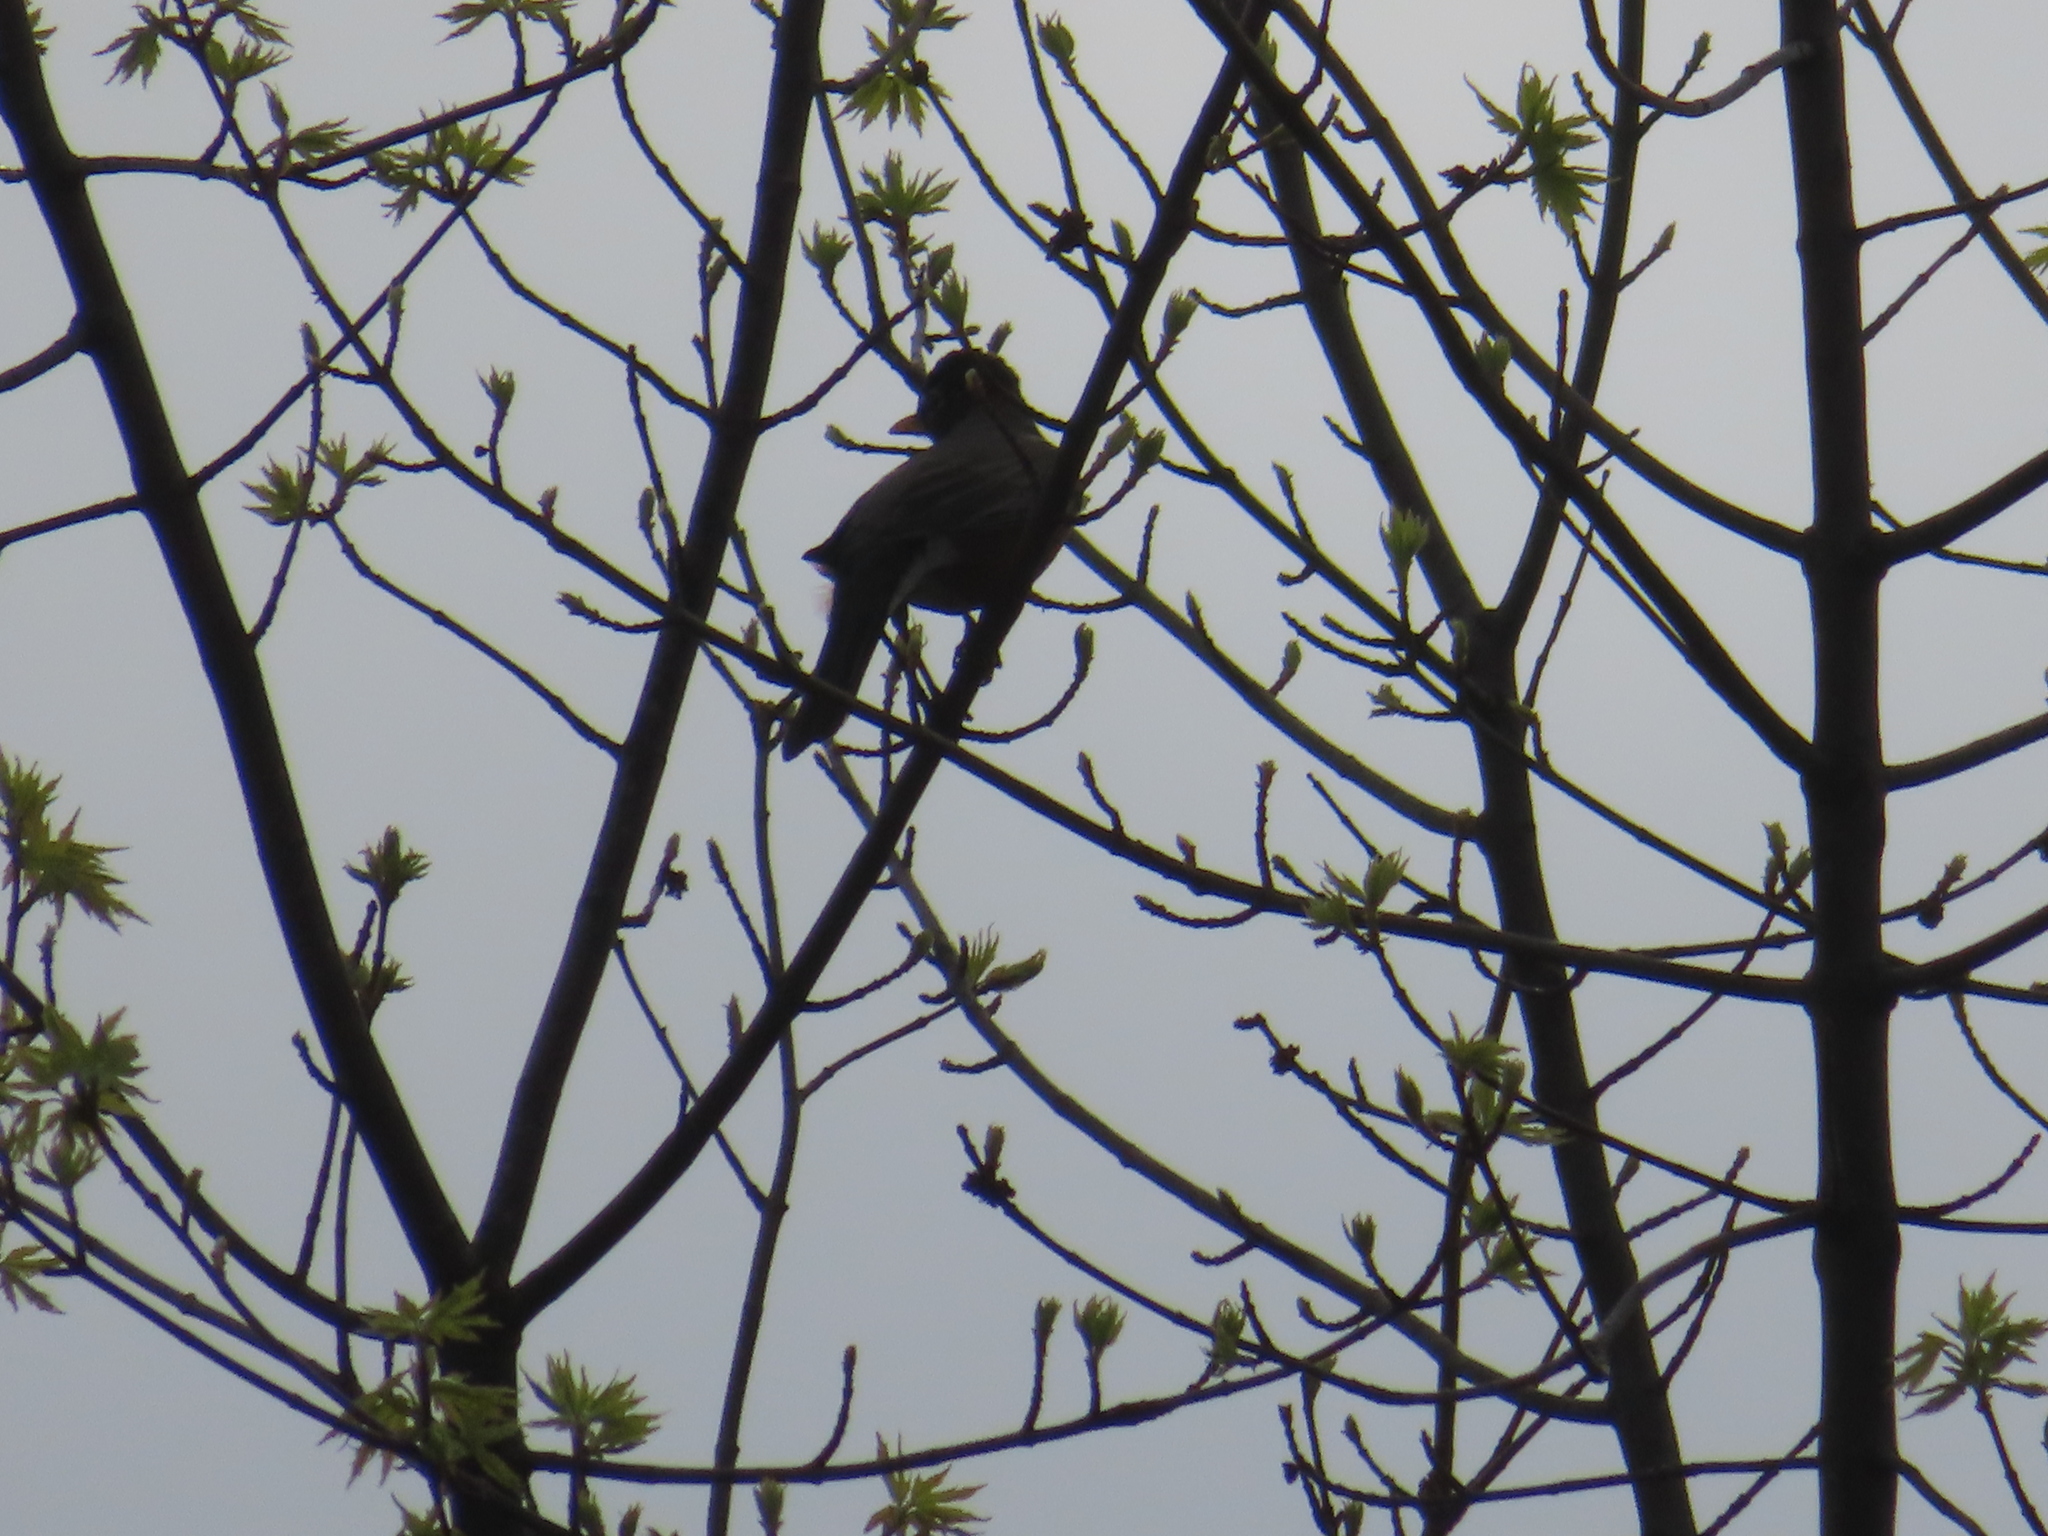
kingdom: Animalia
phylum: Chordata
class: Aves
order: Passeriformes
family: Turdidae
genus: Turdus
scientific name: Turdus migratorius
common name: American robin
